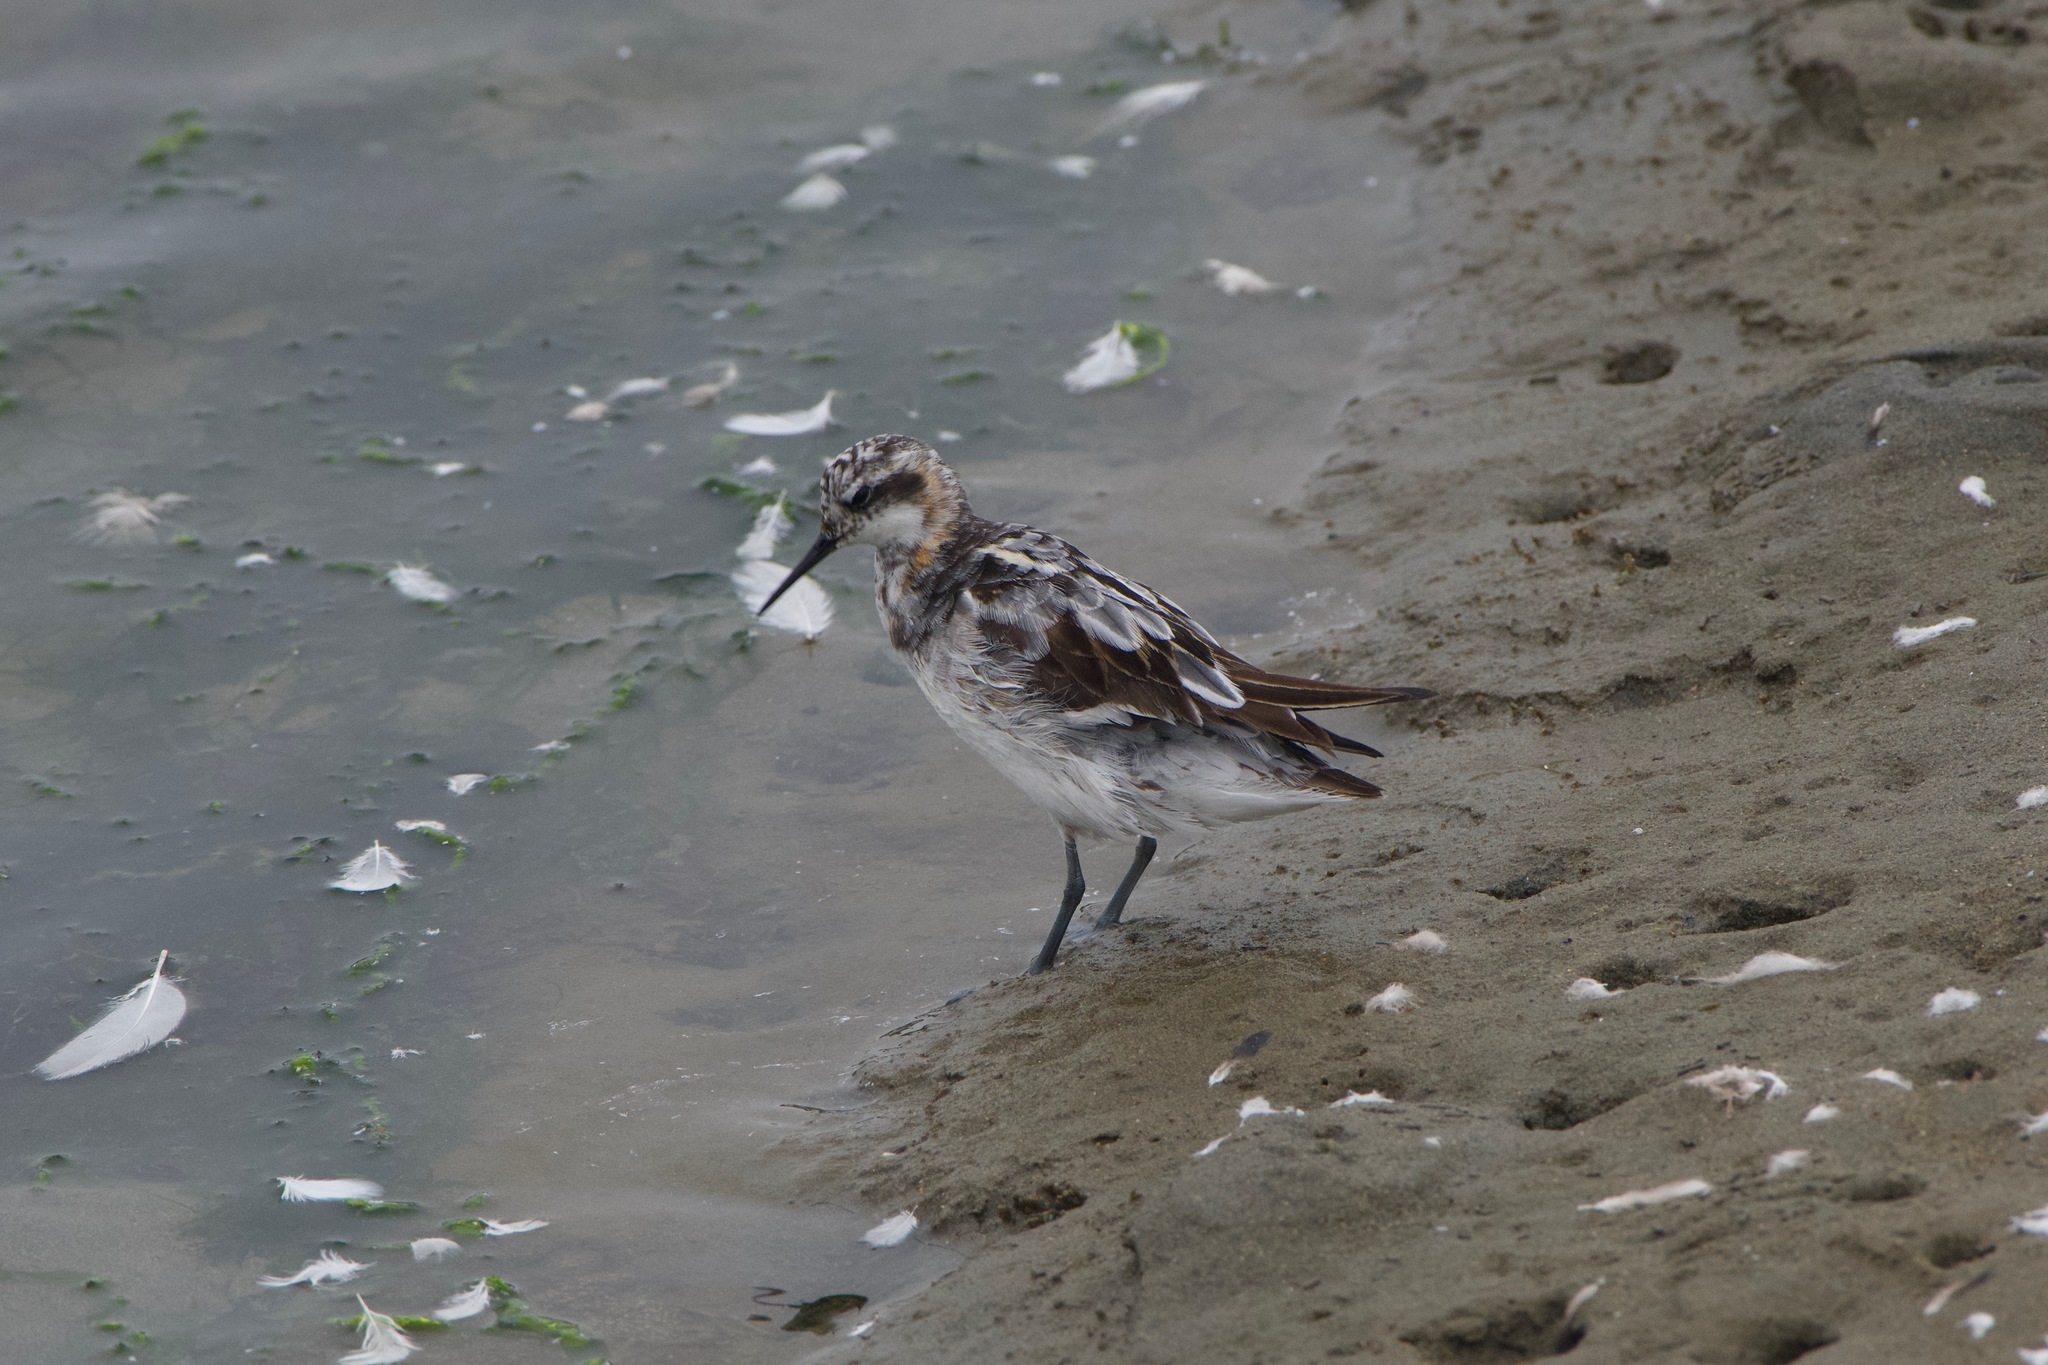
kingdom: Animalia
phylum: Chordata
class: Aves
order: Charadriiformes
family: Scolopacidae
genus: Phalaropus
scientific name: Phalaropus lobatus
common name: Red-necked phalarope
